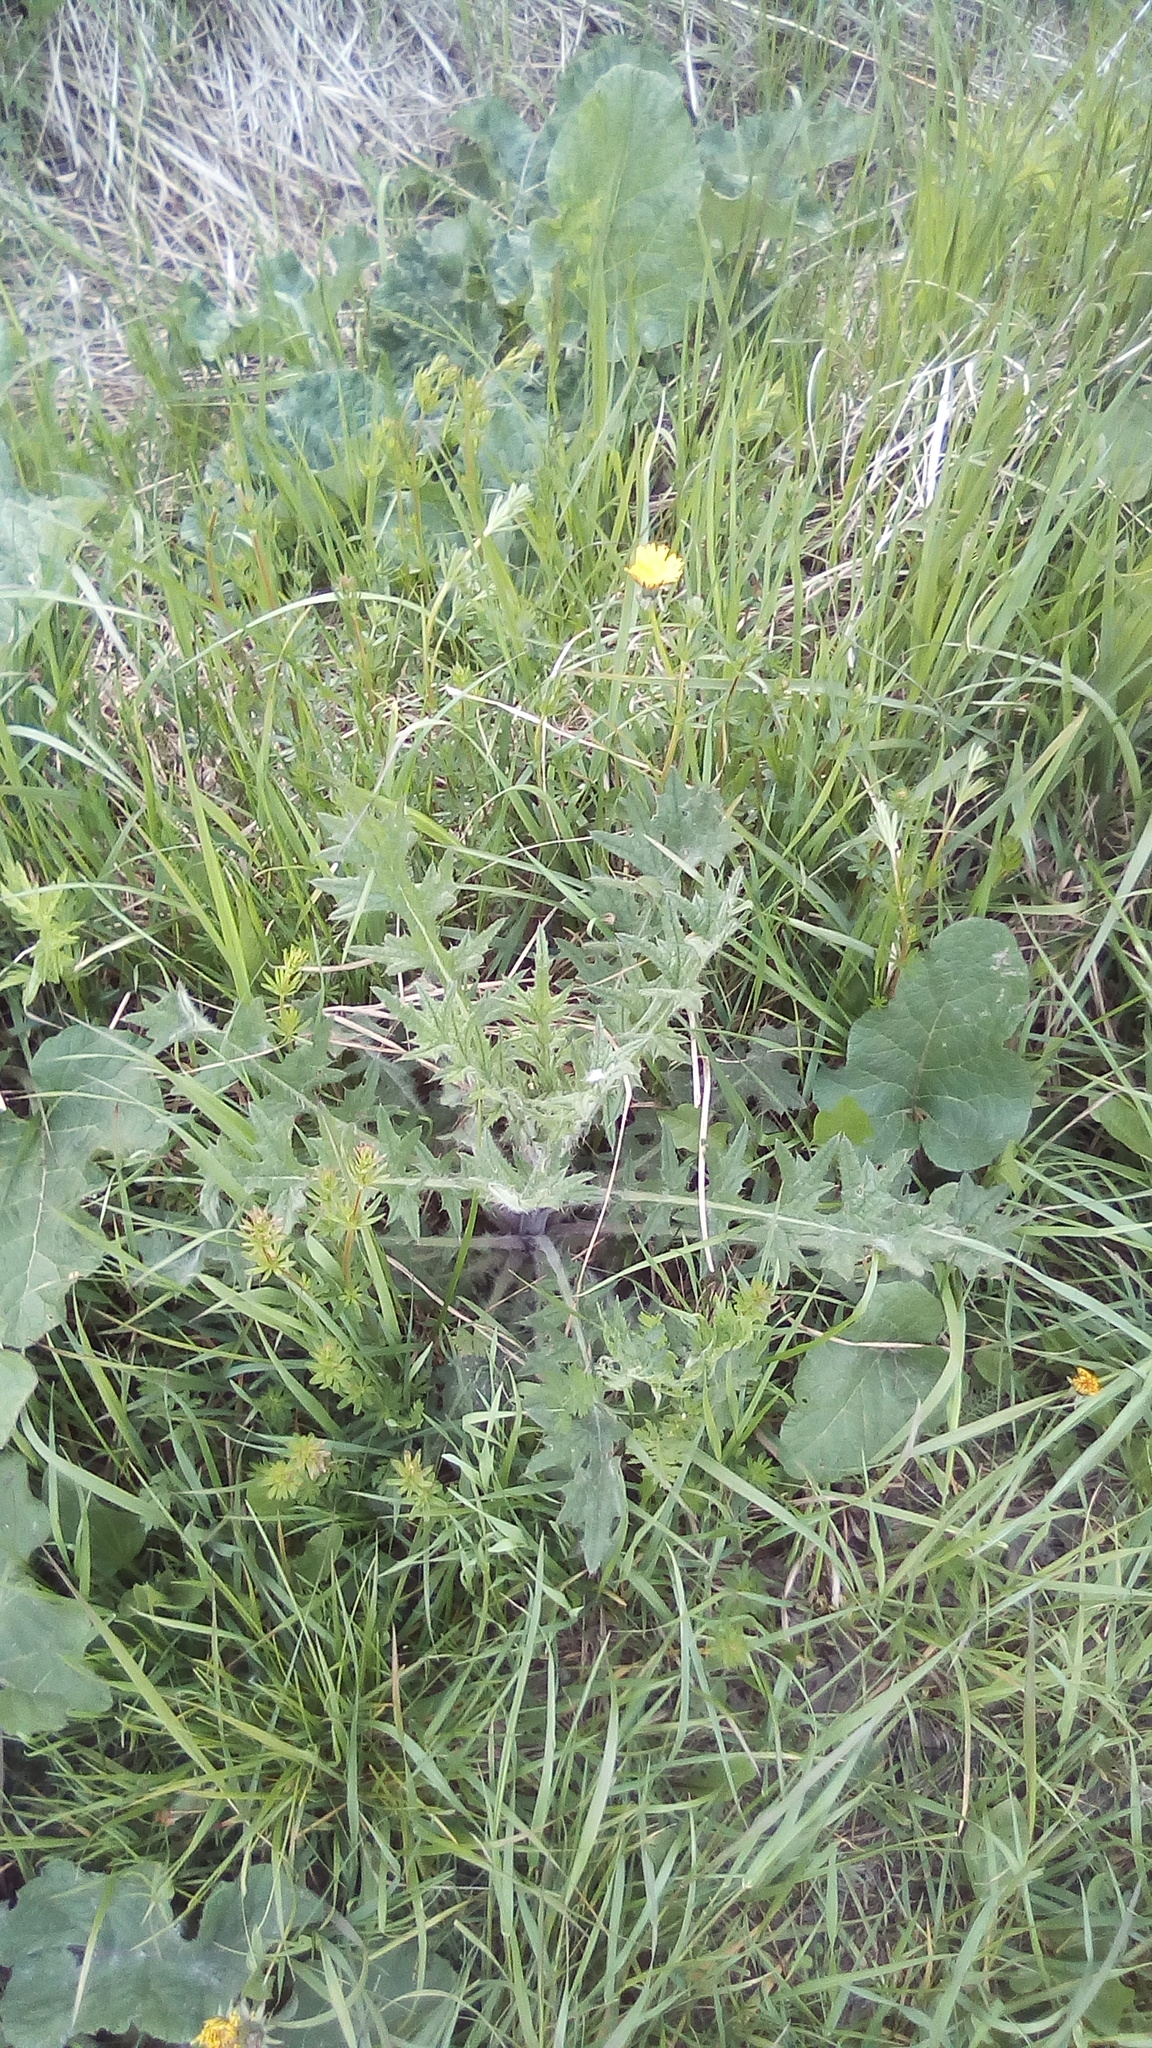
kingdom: Plantae
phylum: Tracheophyta
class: Magnoliopsida
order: Asterales
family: Asteraceae
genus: Cirsium
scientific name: Cirsium vulgare
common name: Bull thistle
